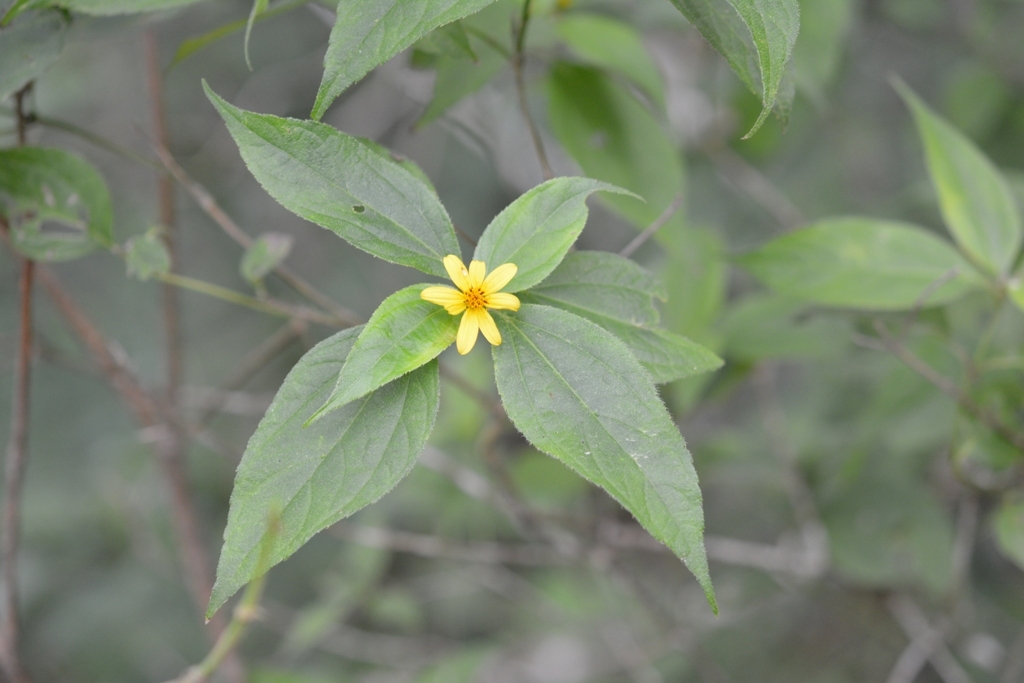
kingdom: Plantae
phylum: Tracheophyta
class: Magnoliopsida
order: Asterales
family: Asteraceae
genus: Perymenium
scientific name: Perymenium grande
